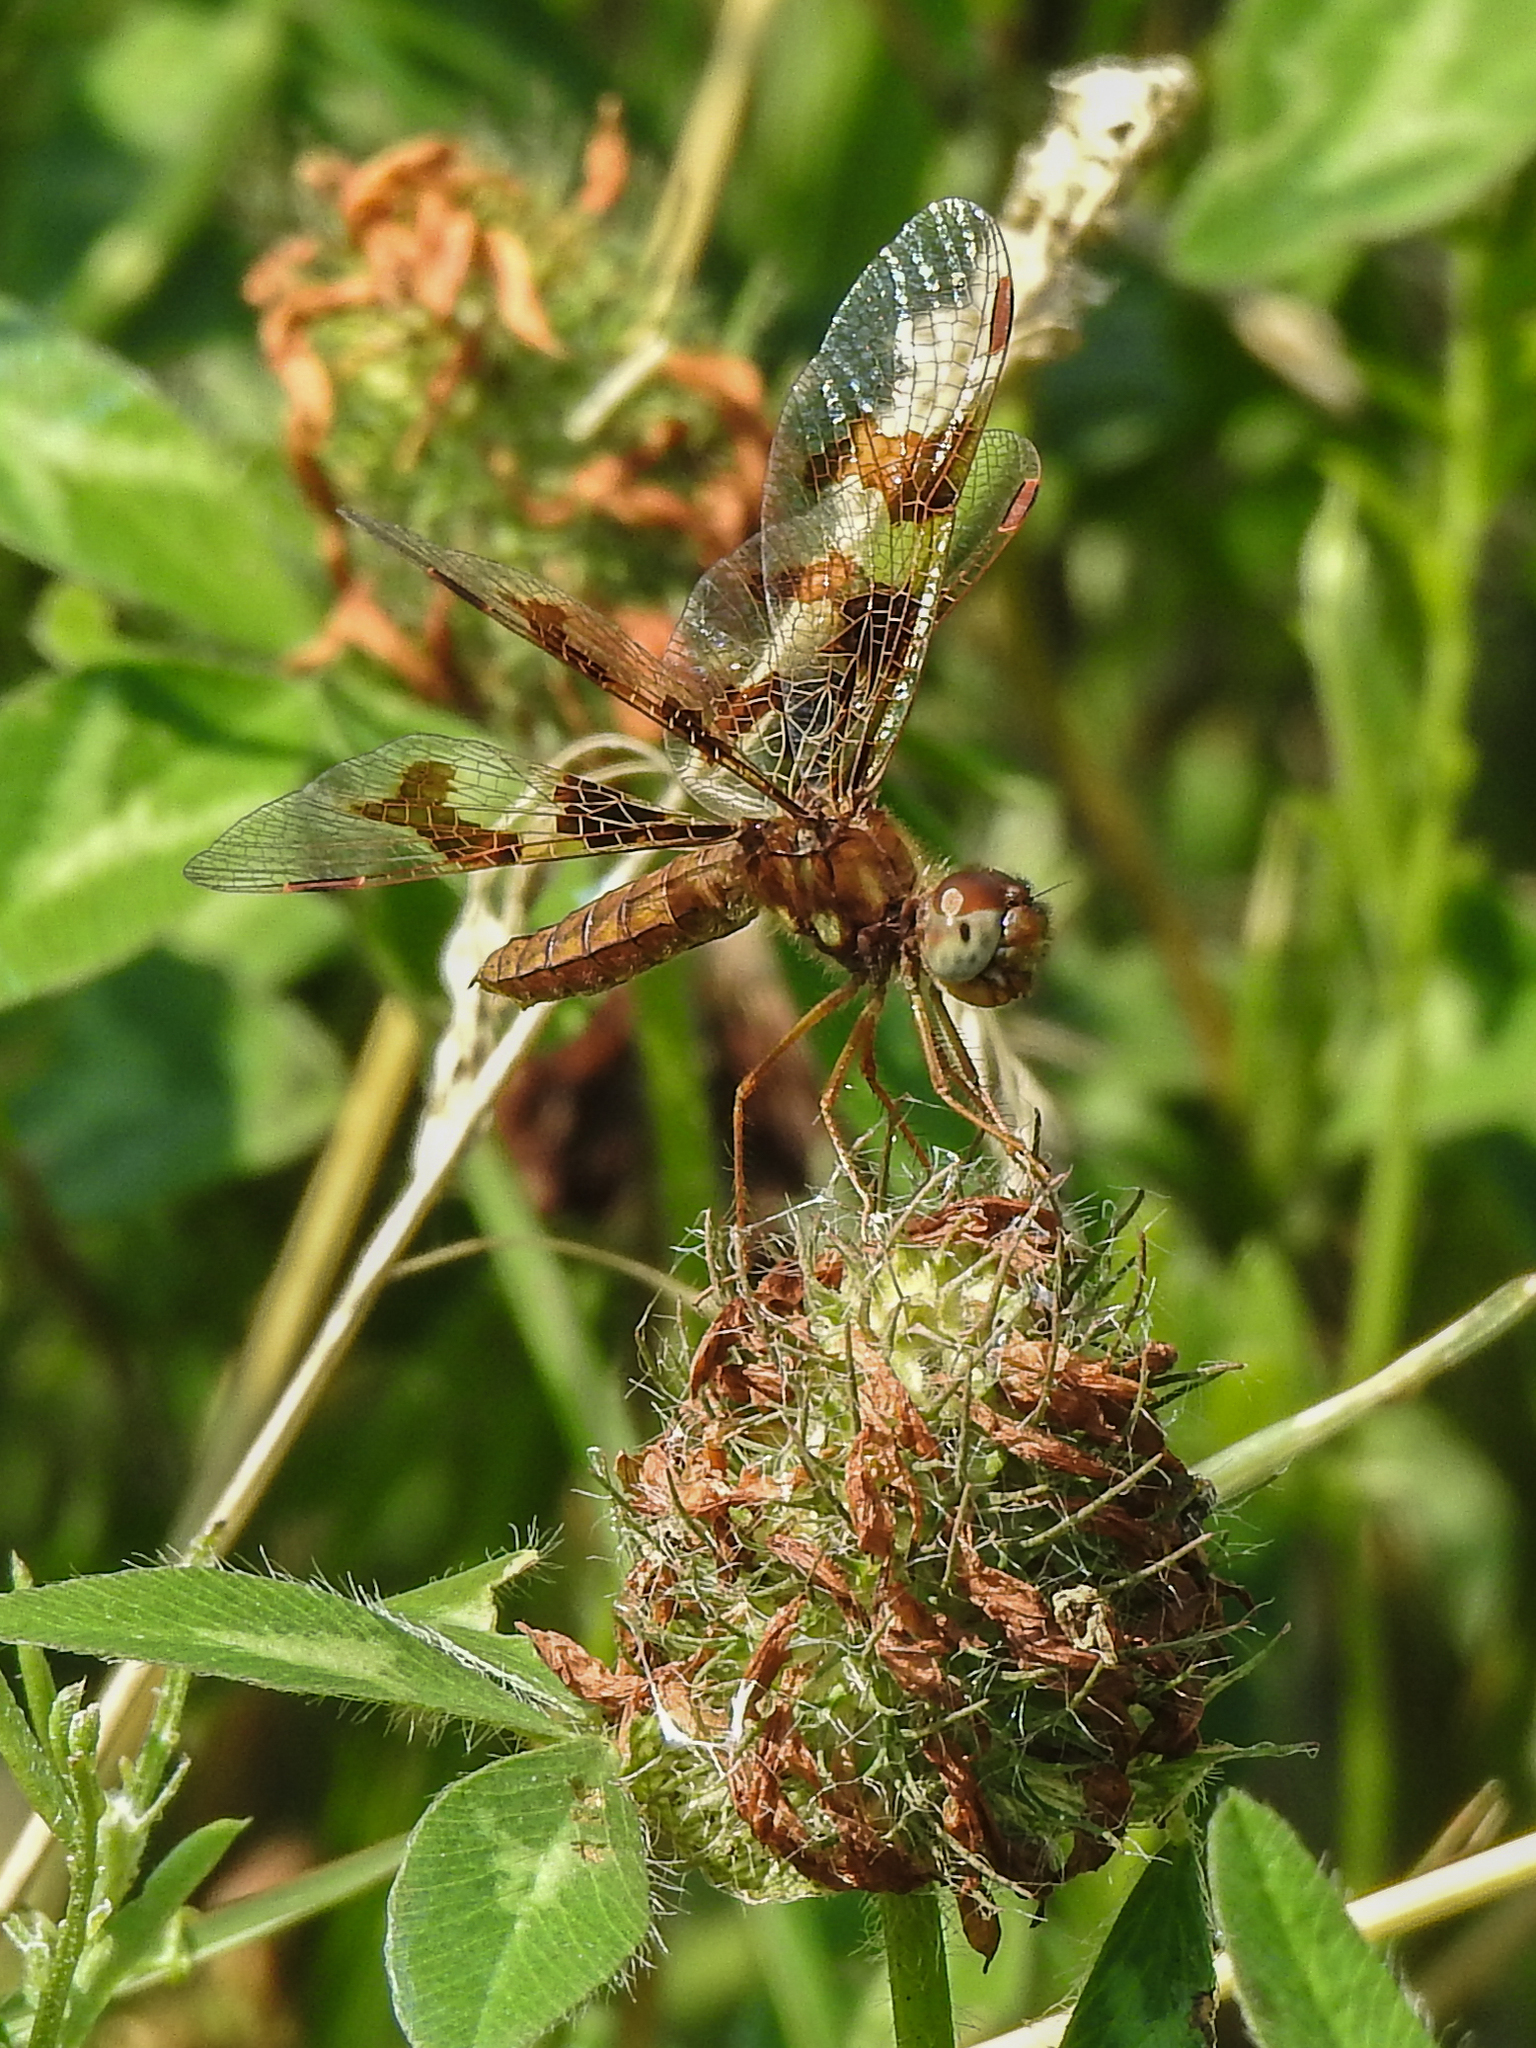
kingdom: Animalia
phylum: Arthropoda
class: Insecta
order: Odonata
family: Libellulidae
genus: Perithemis
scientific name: Perithemis tenera
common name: Eastern amberwing
